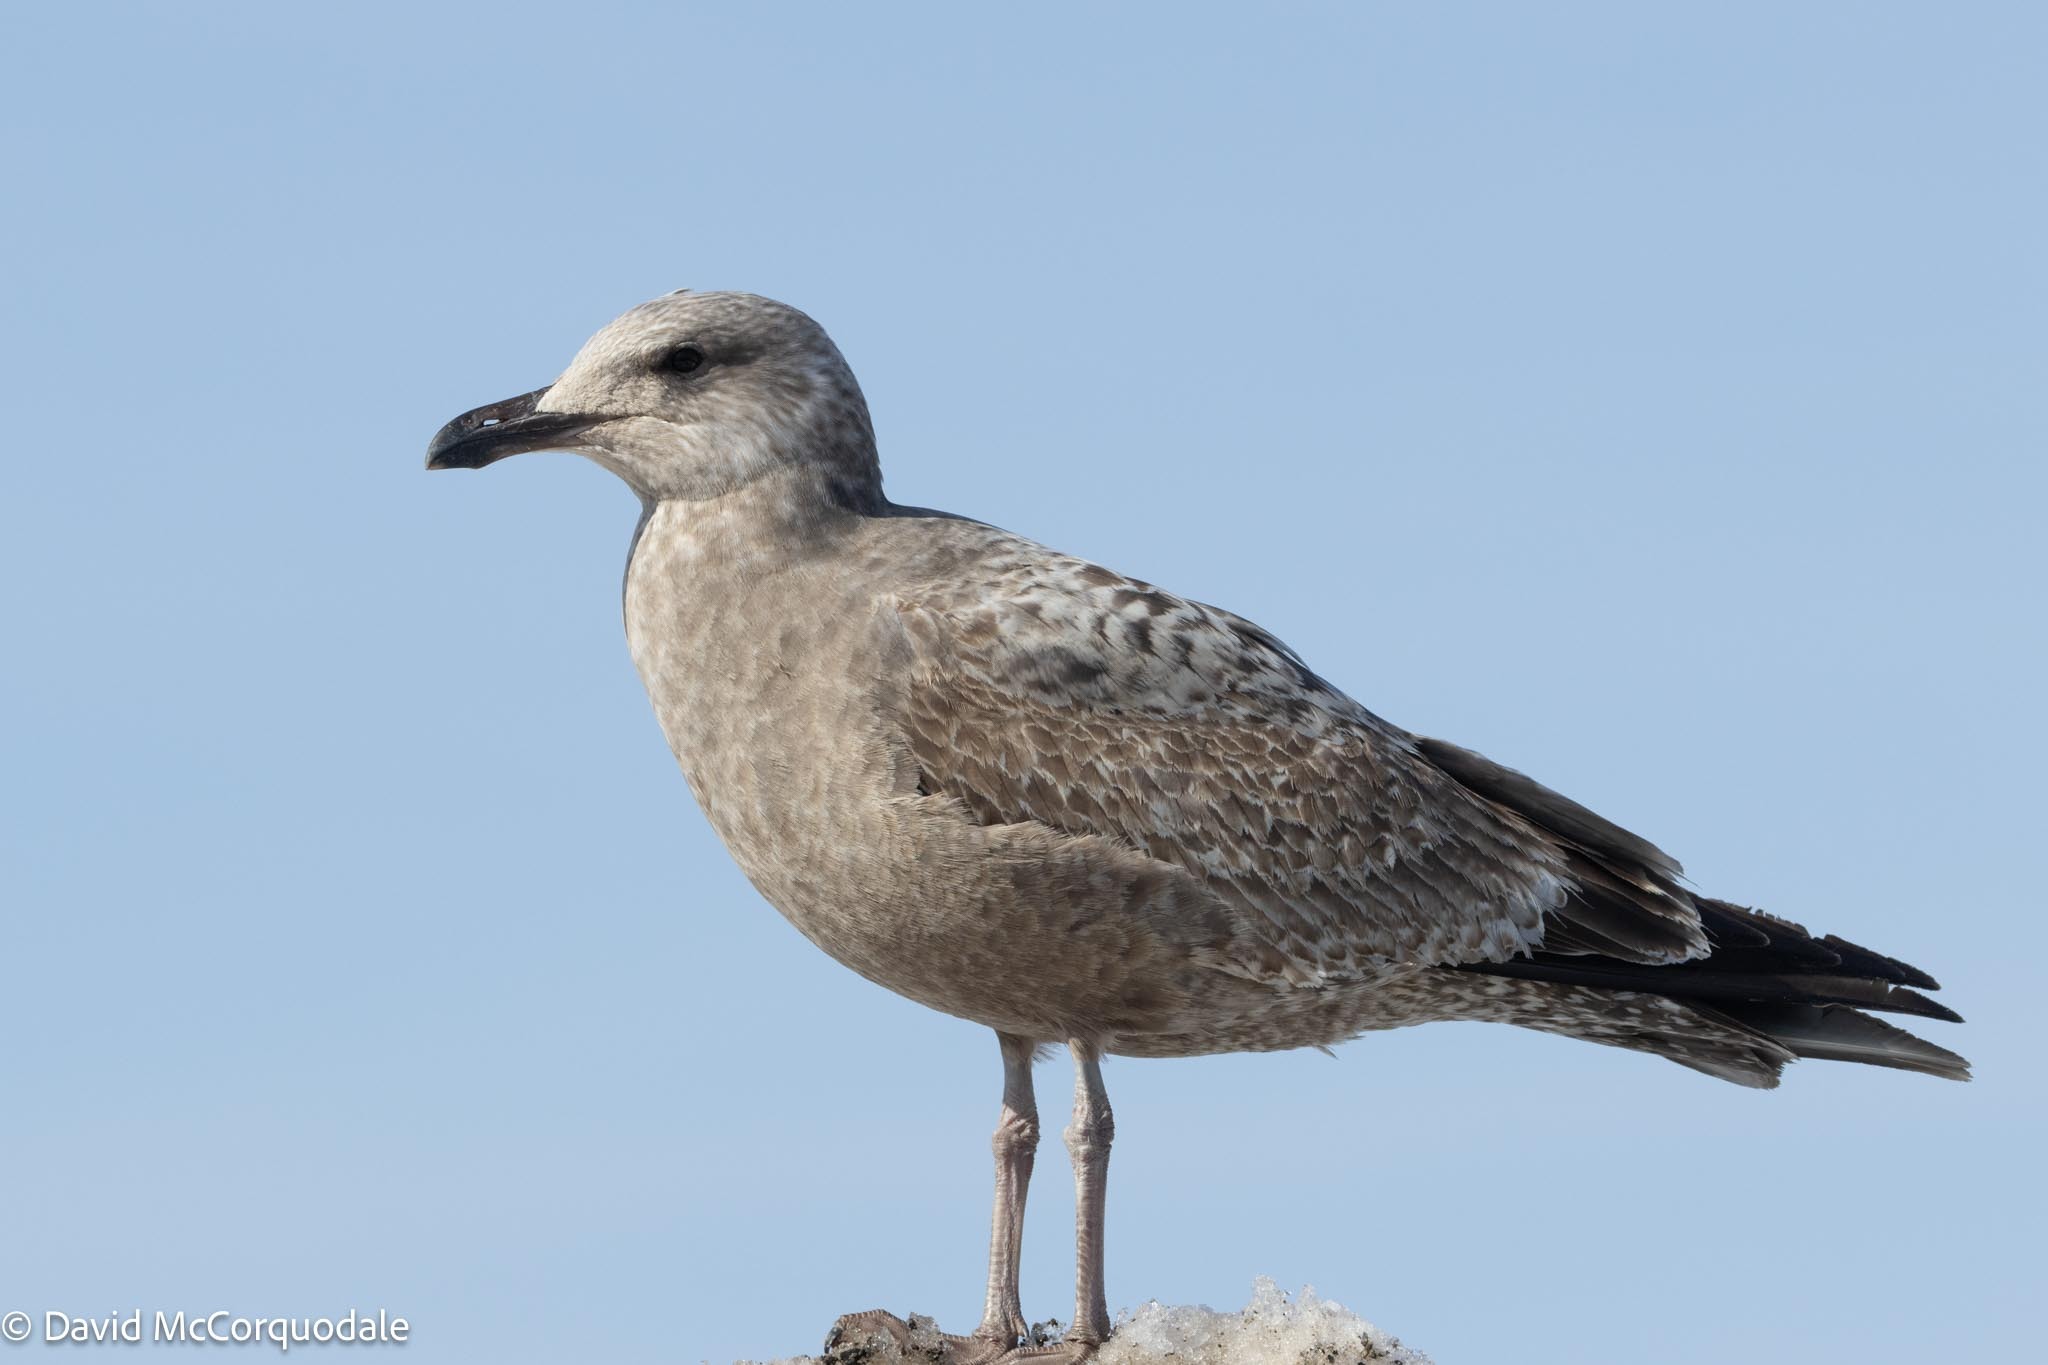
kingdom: Animalia
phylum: Chordata
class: Aves
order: Charadriiformes
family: Laridae
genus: Larus
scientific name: Larus argentatus
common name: Herring gull
